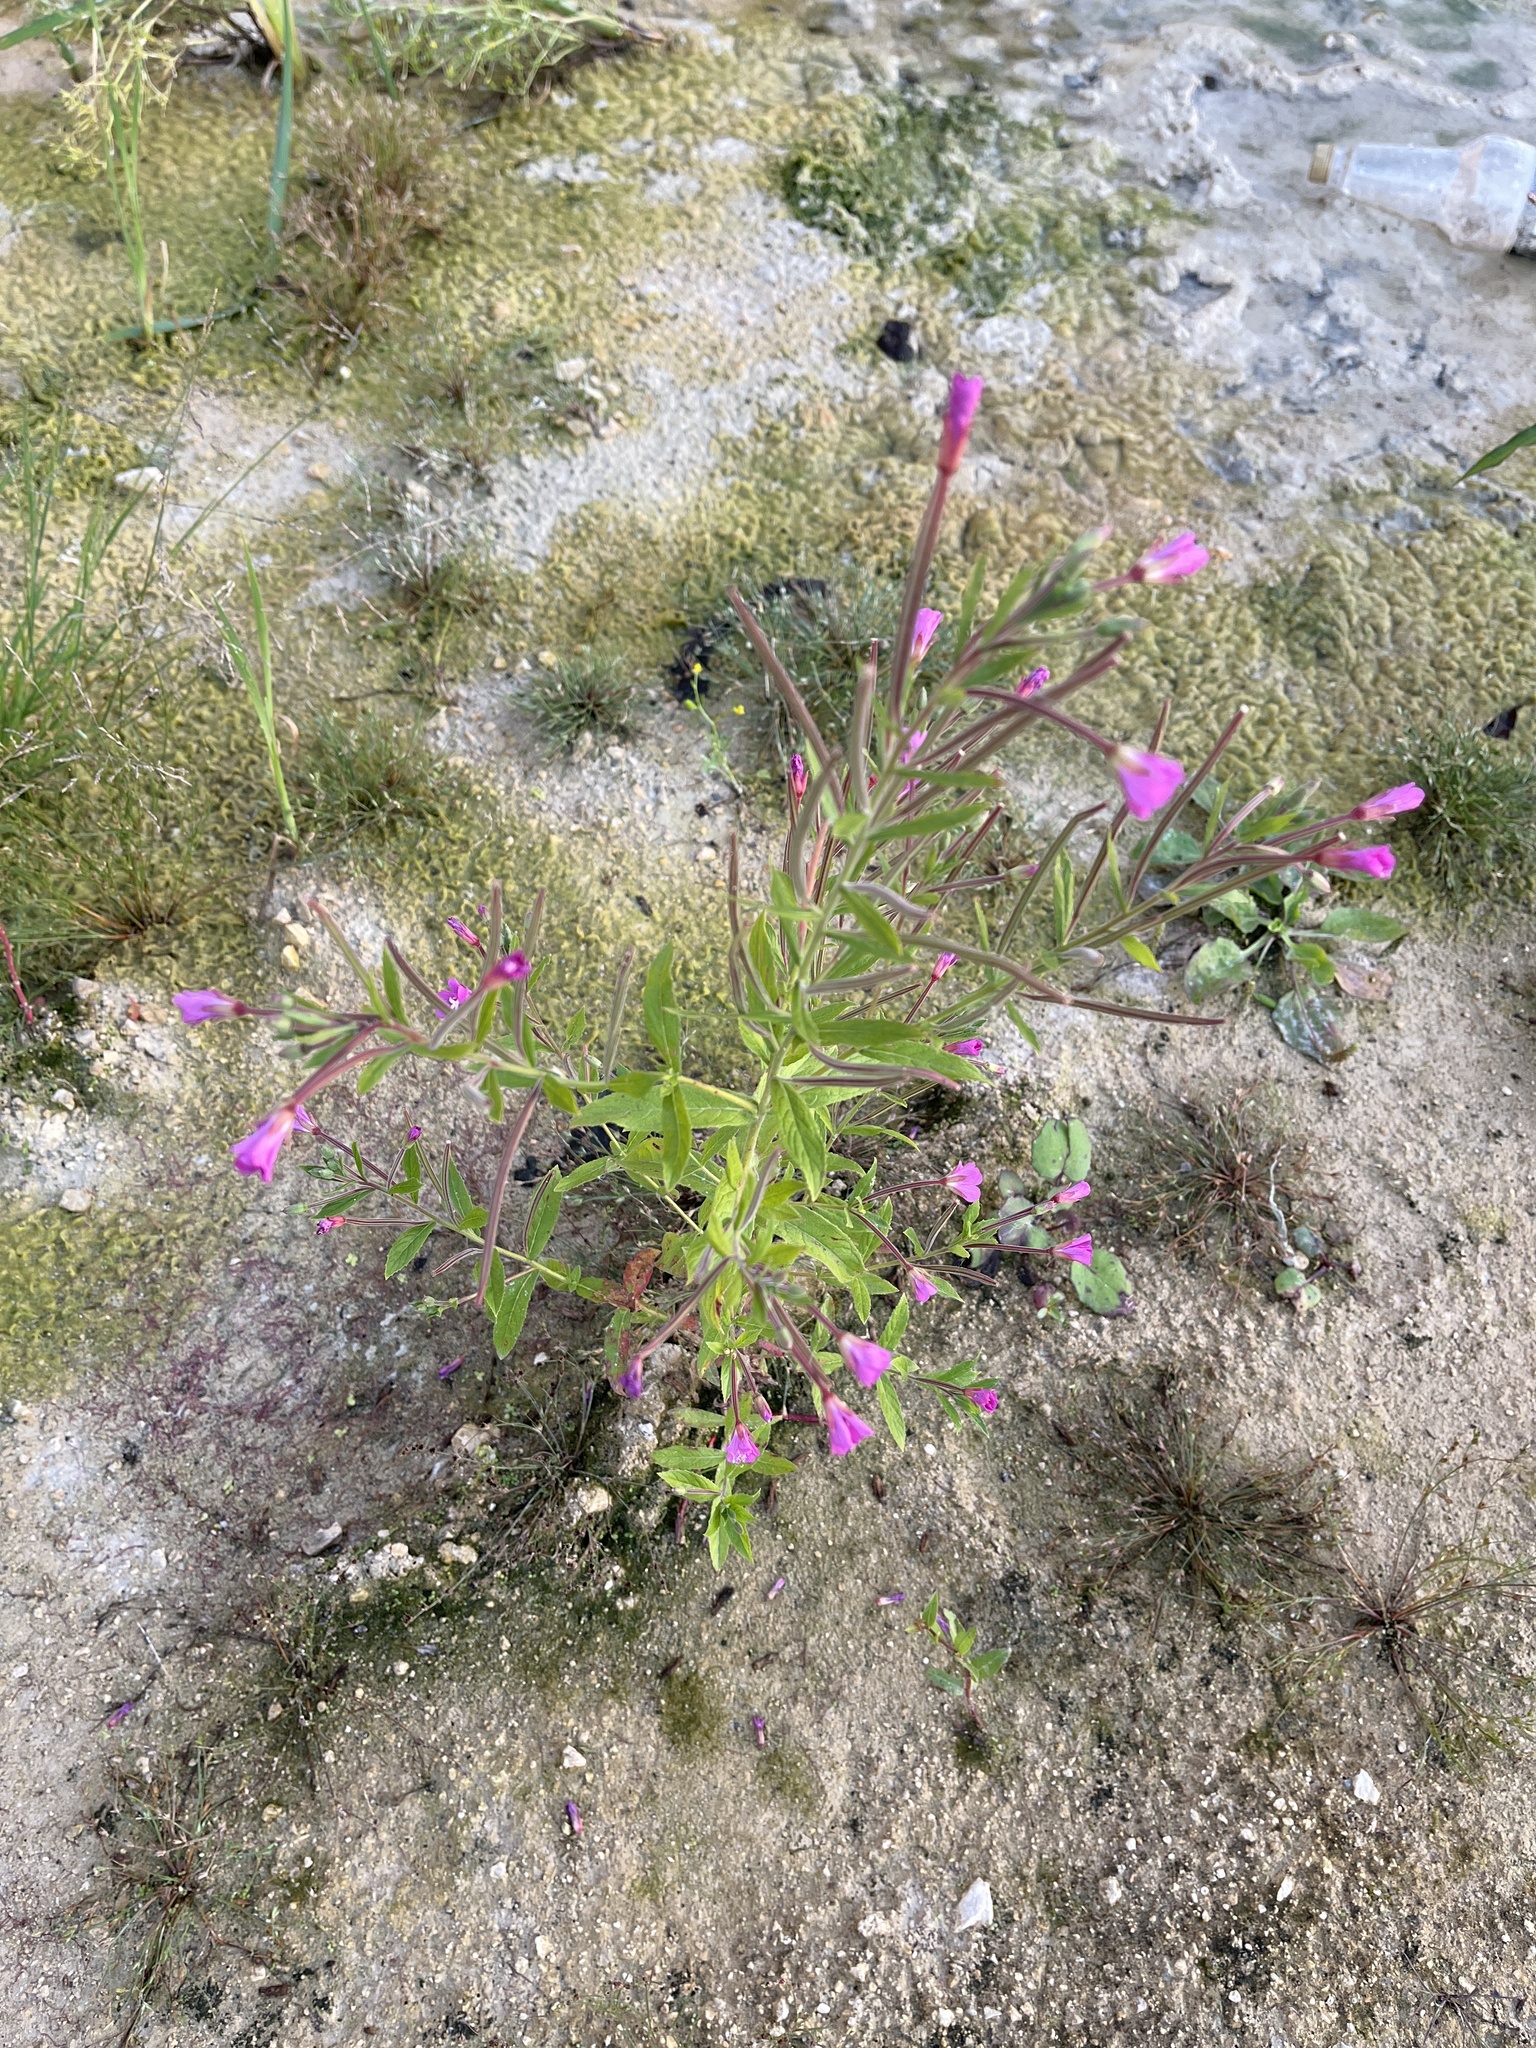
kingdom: Plantae
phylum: Tracheophyta
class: Magnoliopsida
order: Myrtales
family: Onagraceae
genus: Epilobium
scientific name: Epilobium hirsutum
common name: Great willowherb
